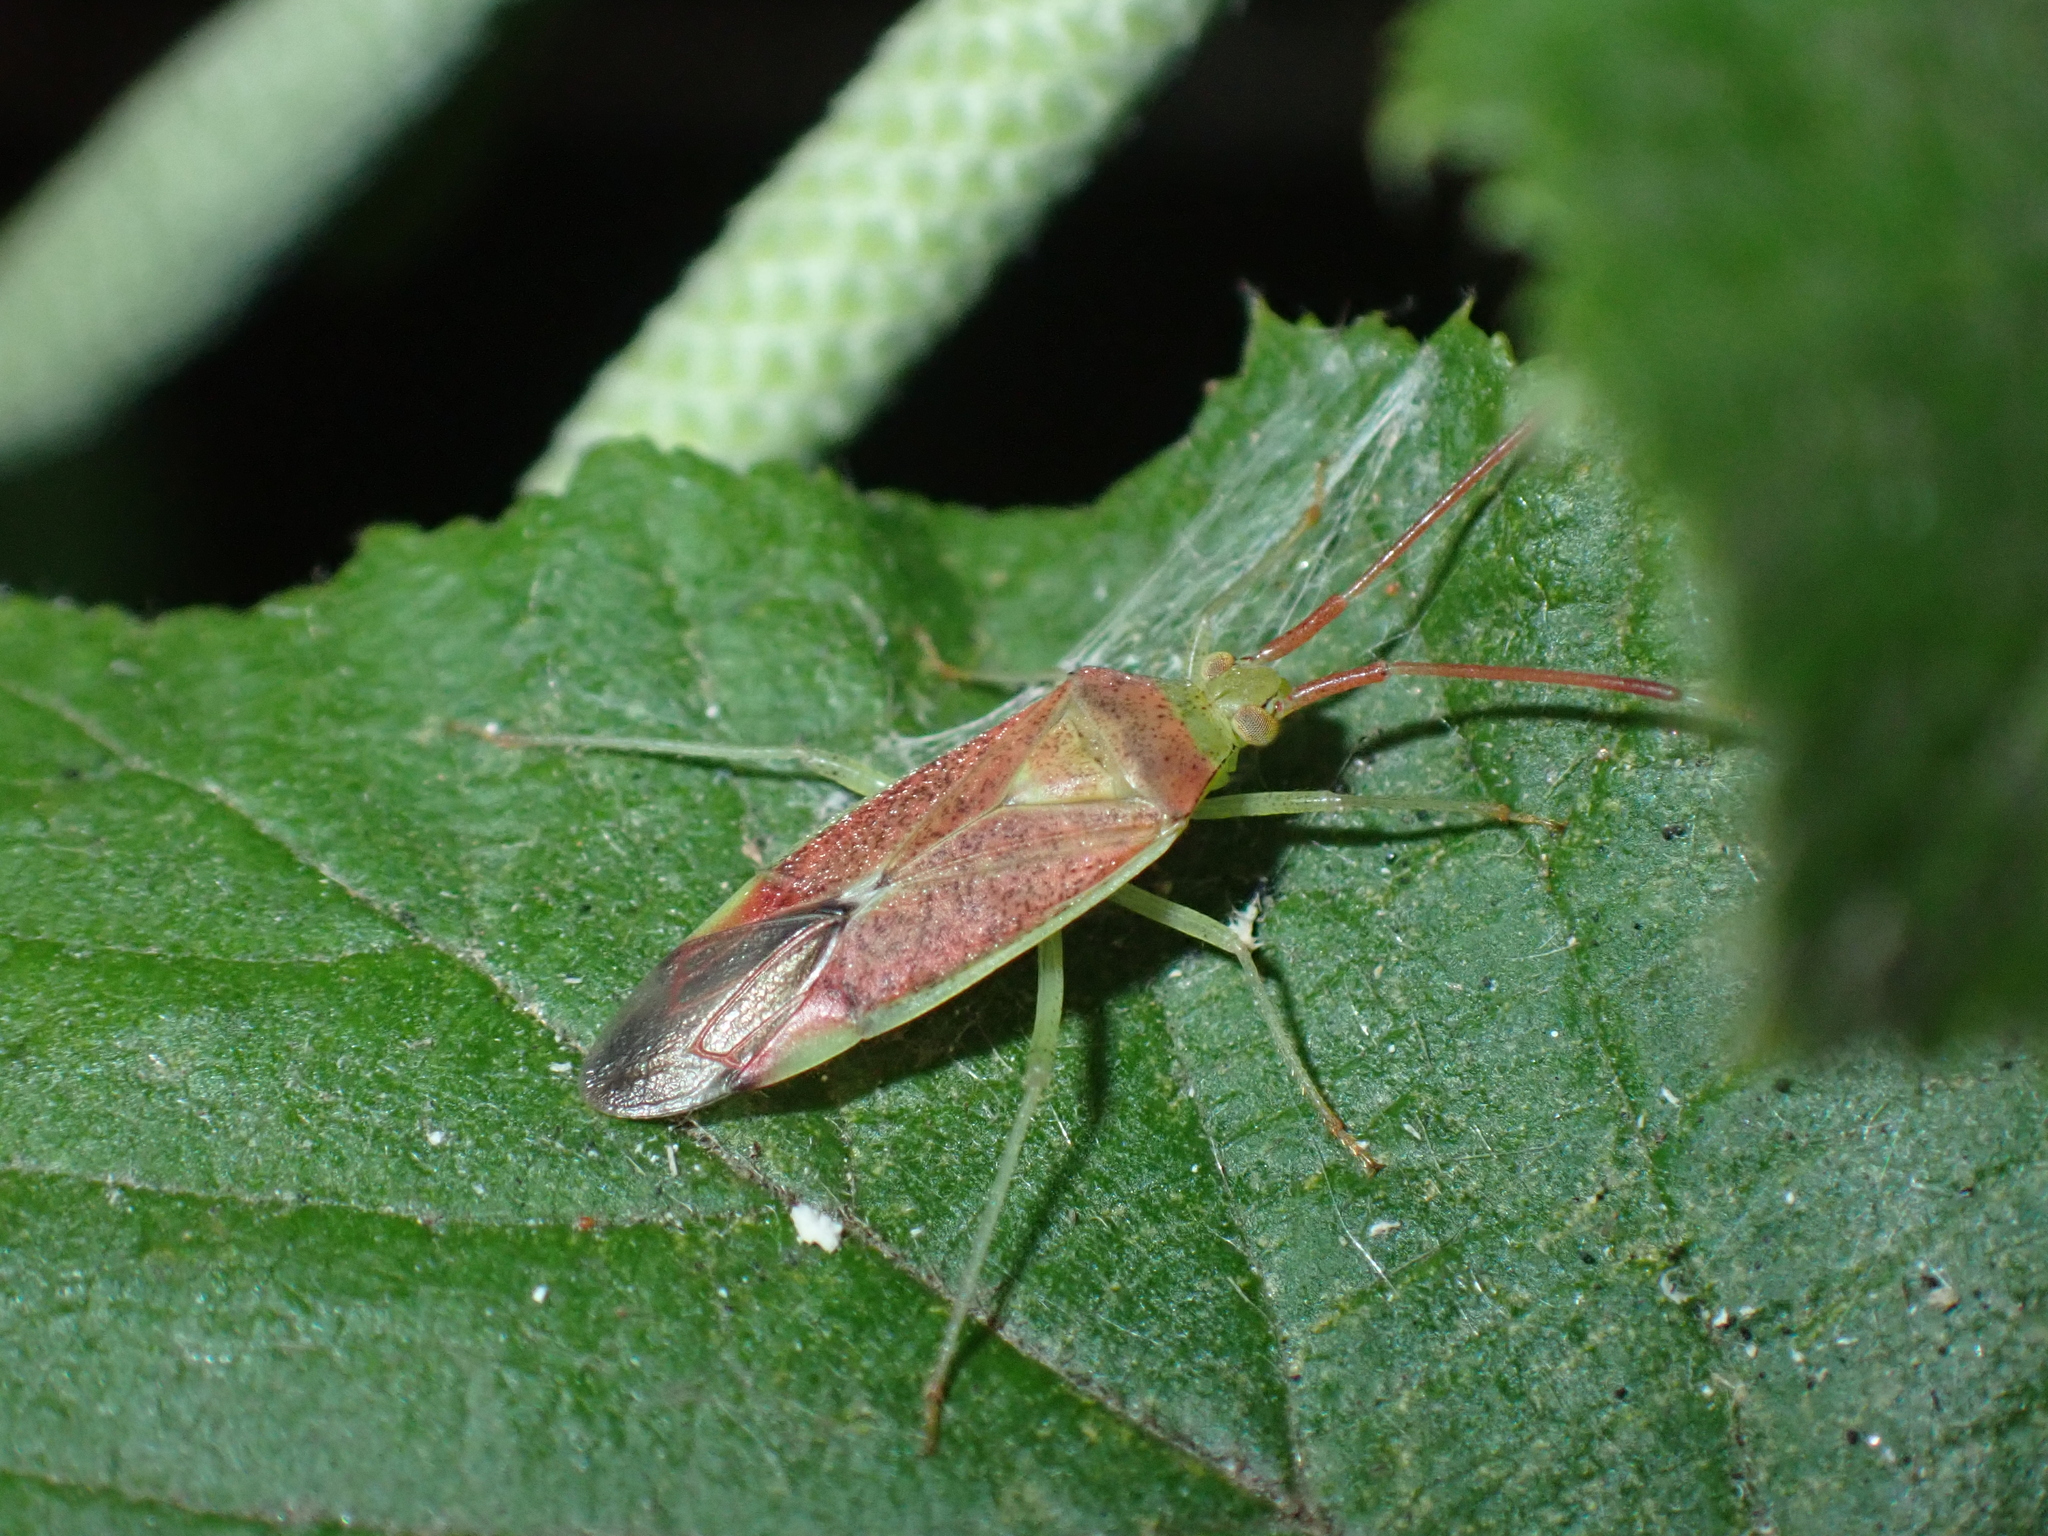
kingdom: Animalia
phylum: Arthropoda
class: Insecta
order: Hemiptera
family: Miridae
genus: Pantilius
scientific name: Pantilius tunicatus
